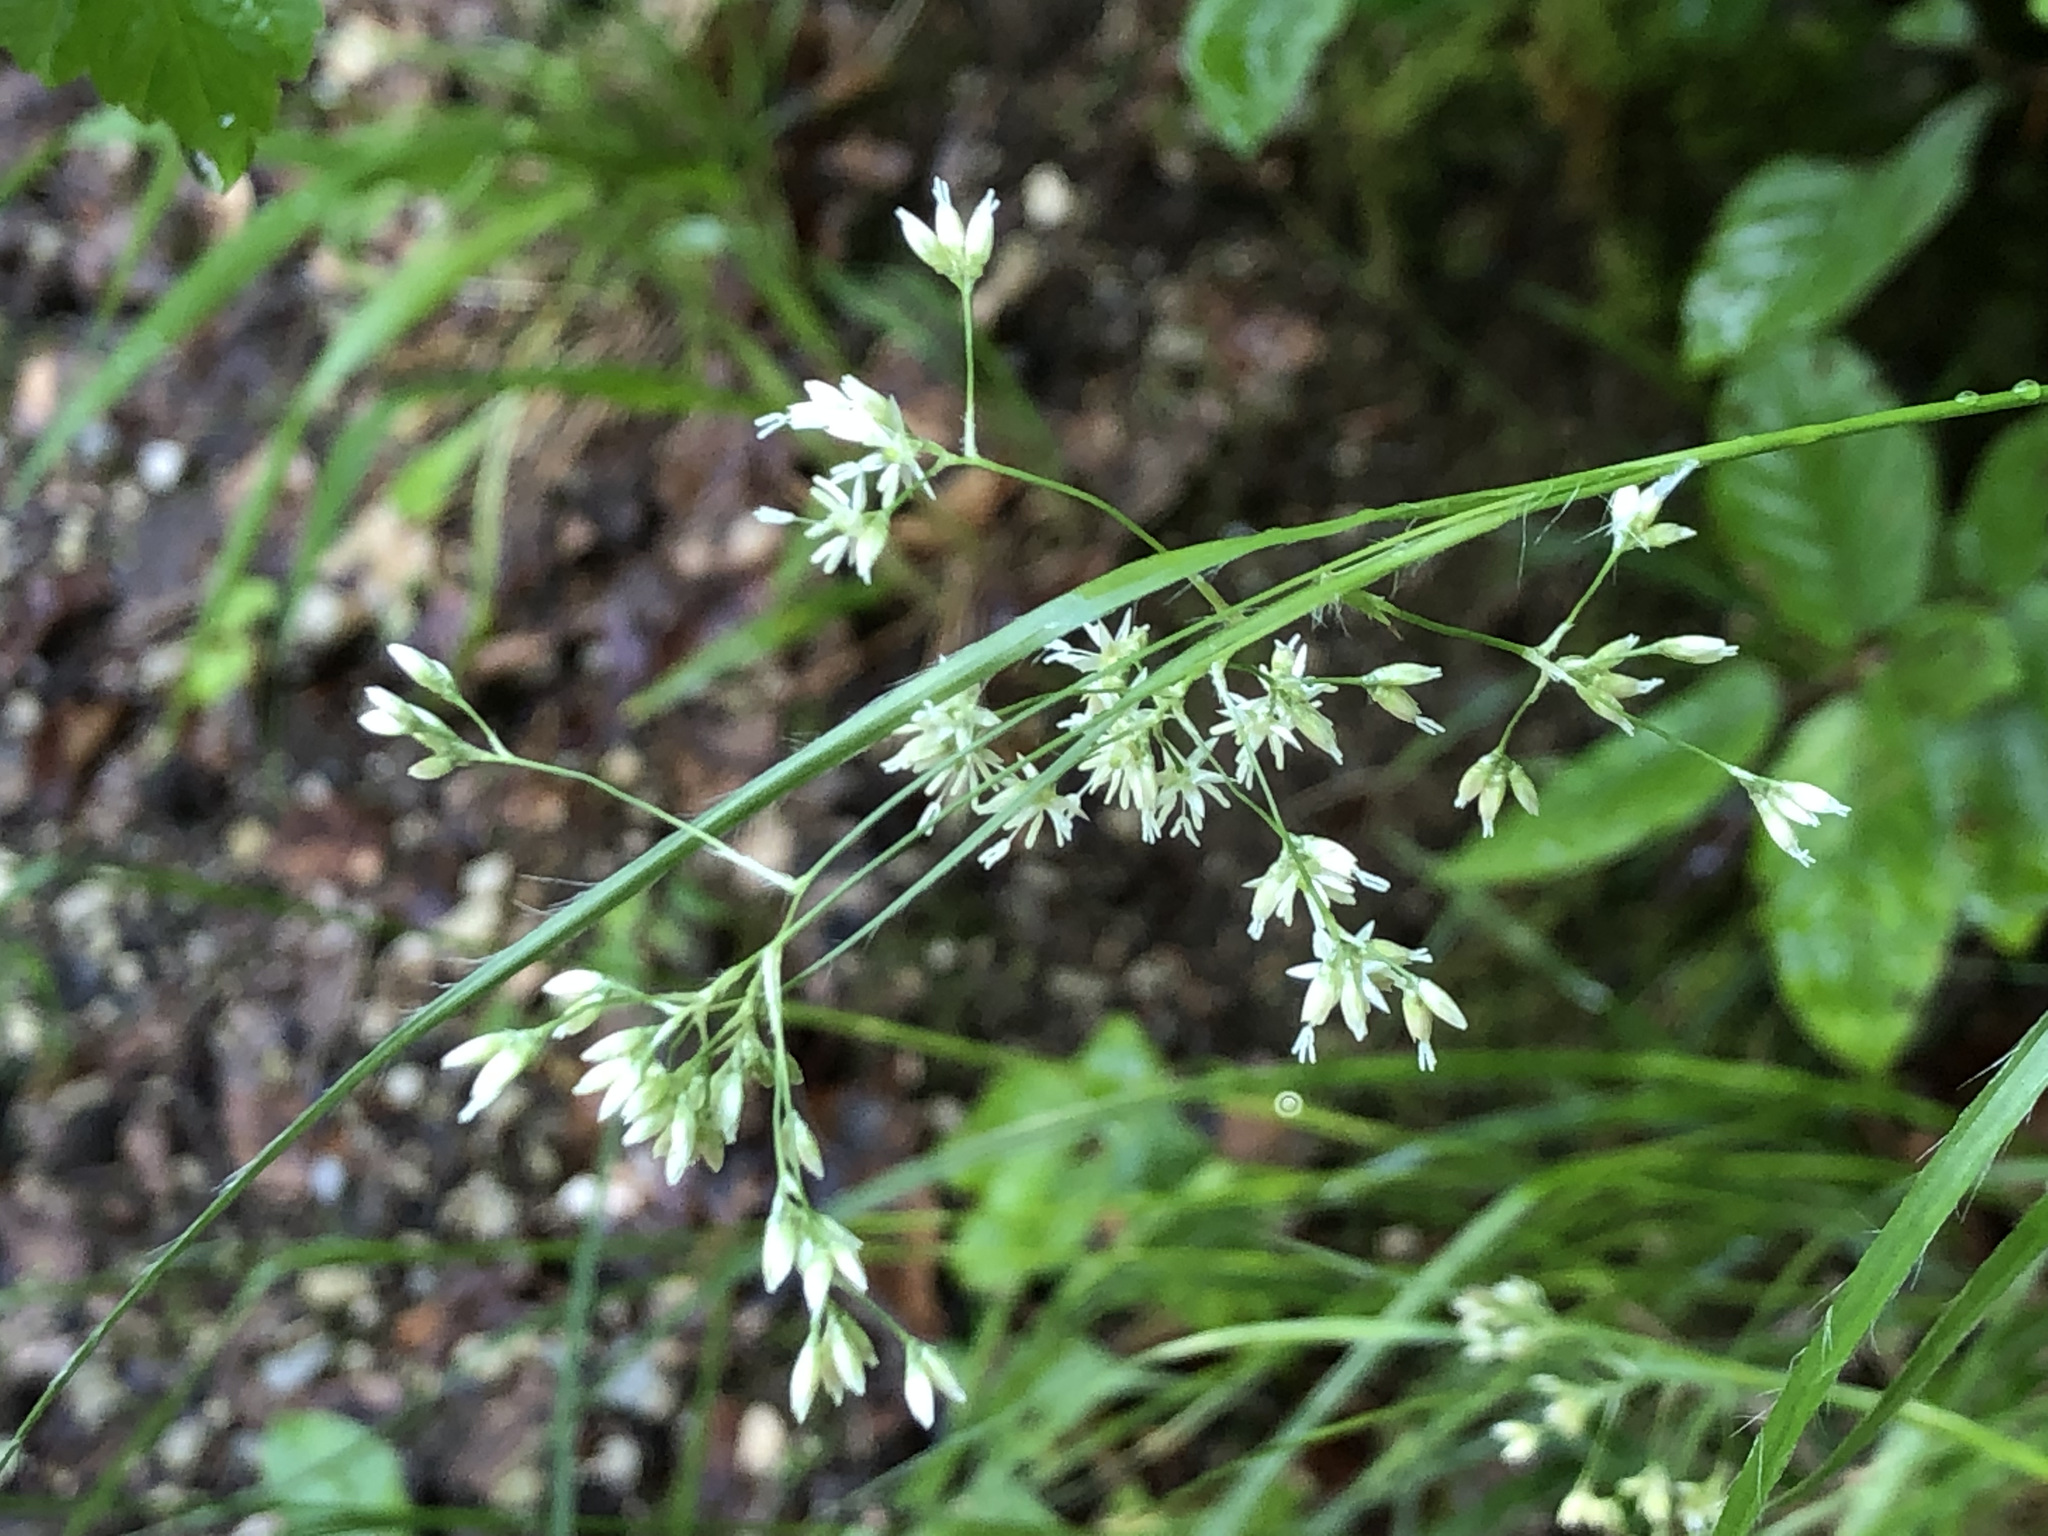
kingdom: Plantae
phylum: Tracheophyta
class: Liliopsida
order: Poales
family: Juncaceae
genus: Luzula
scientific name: Luzula luzuloides
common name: White wood-rush
